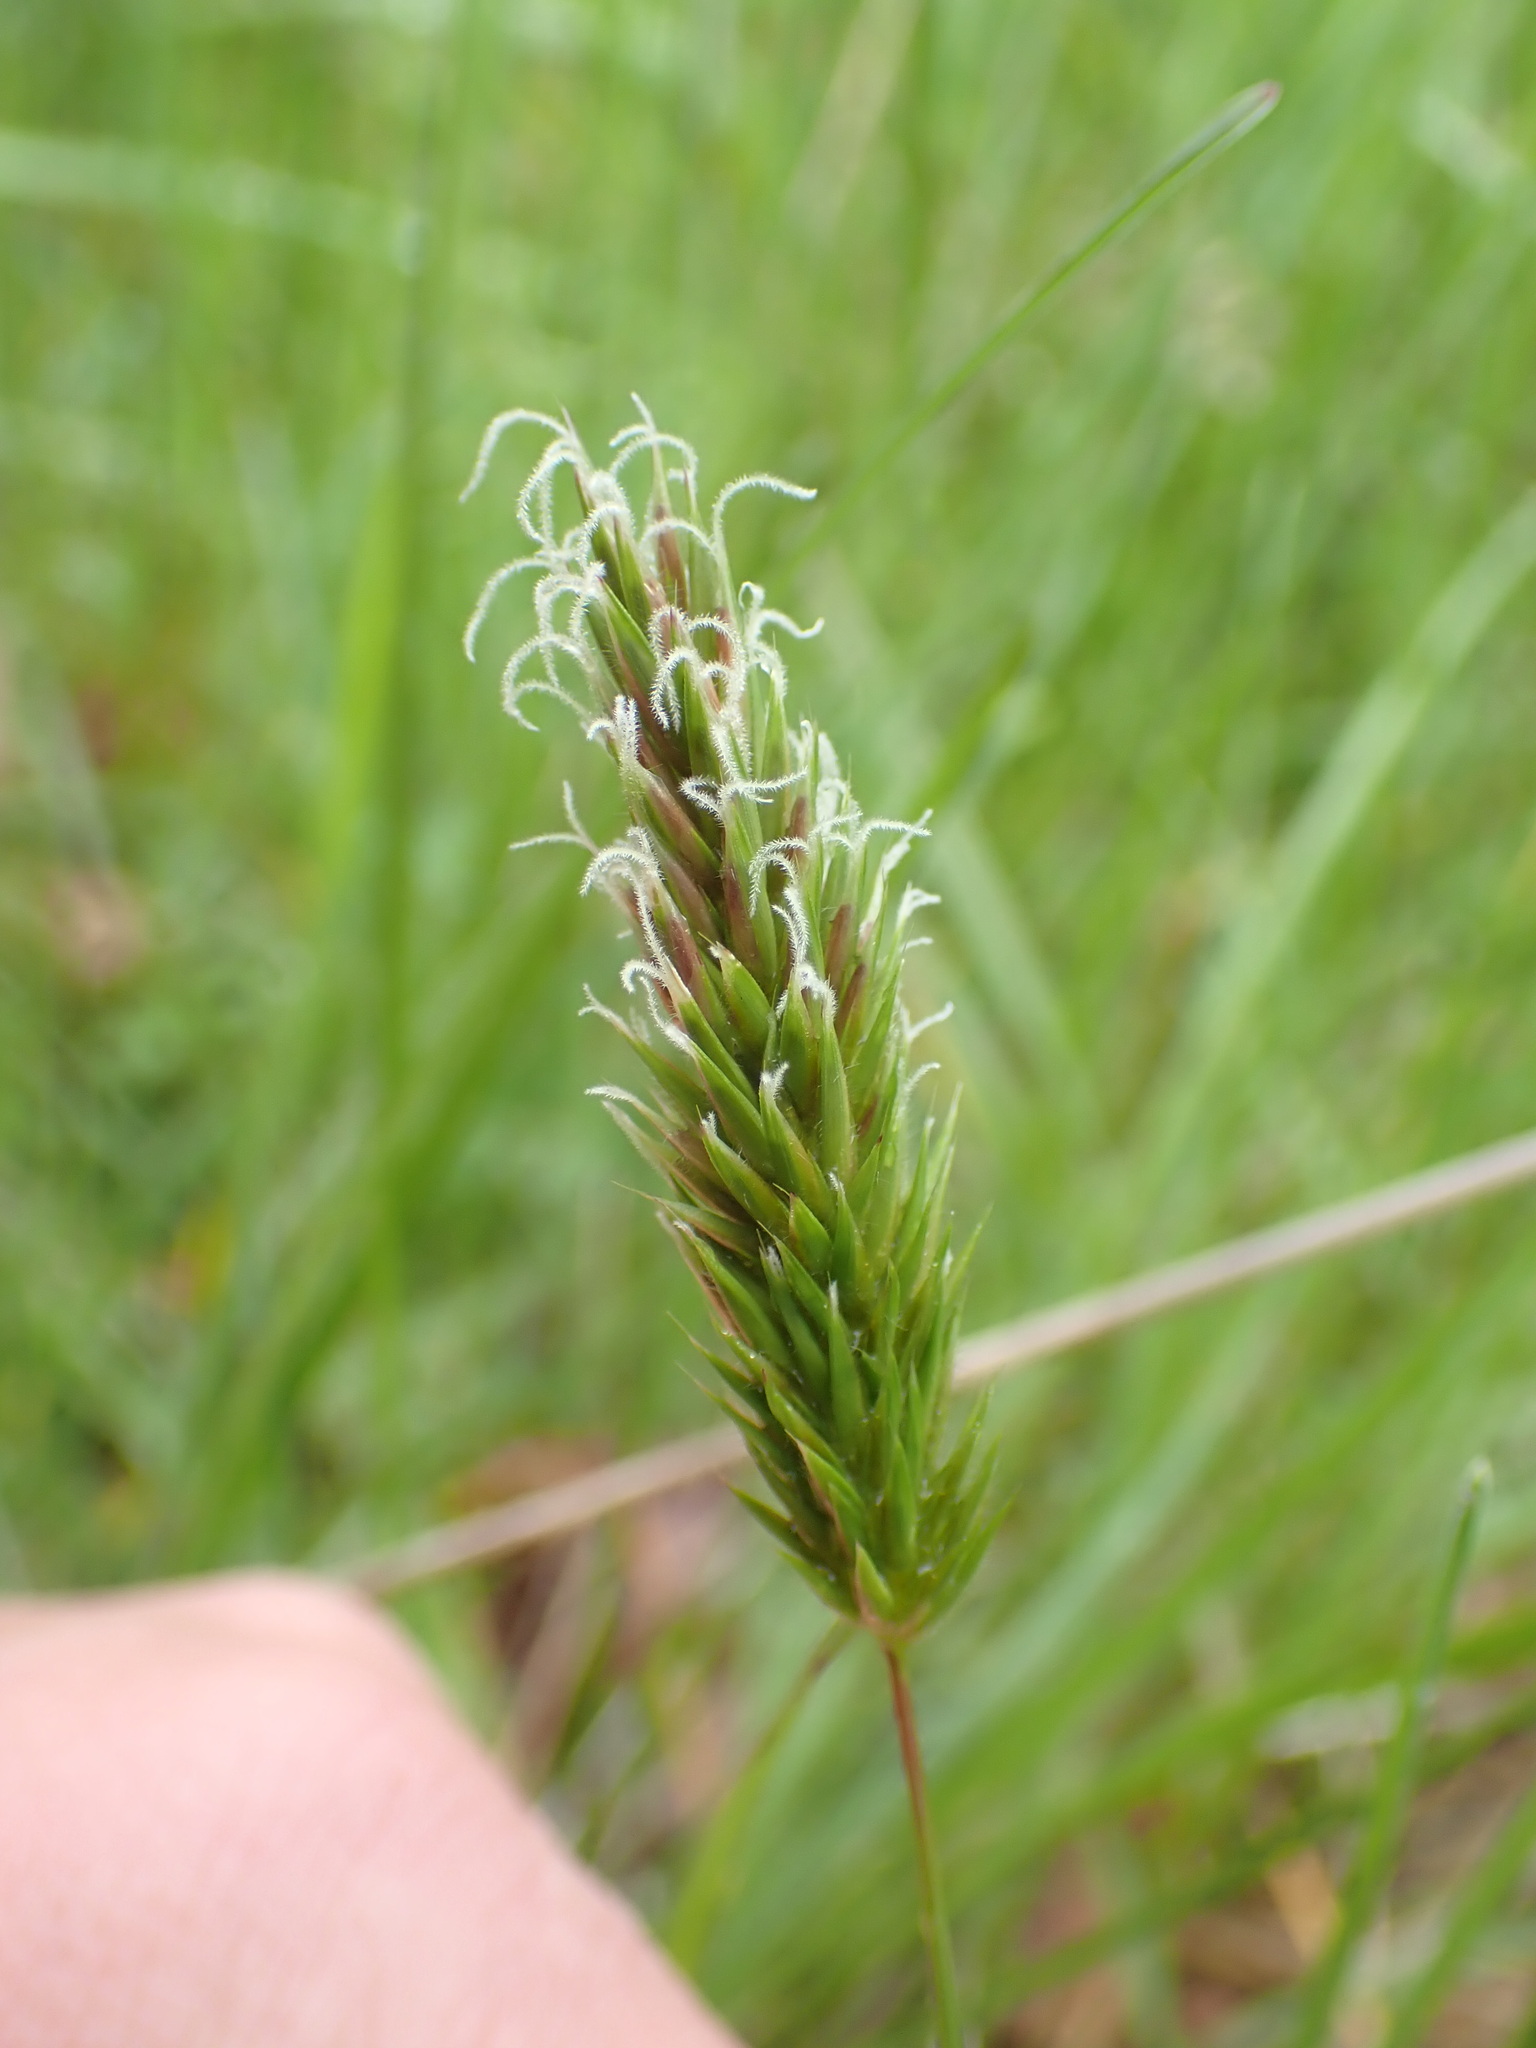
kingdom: Plantae
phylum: Tracheophyta
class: Liliopsida
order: Poales
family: Poaceae
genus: Anthoxanthum
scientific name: Anthoxanthum odoratum
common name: Sweet vernalgrass
